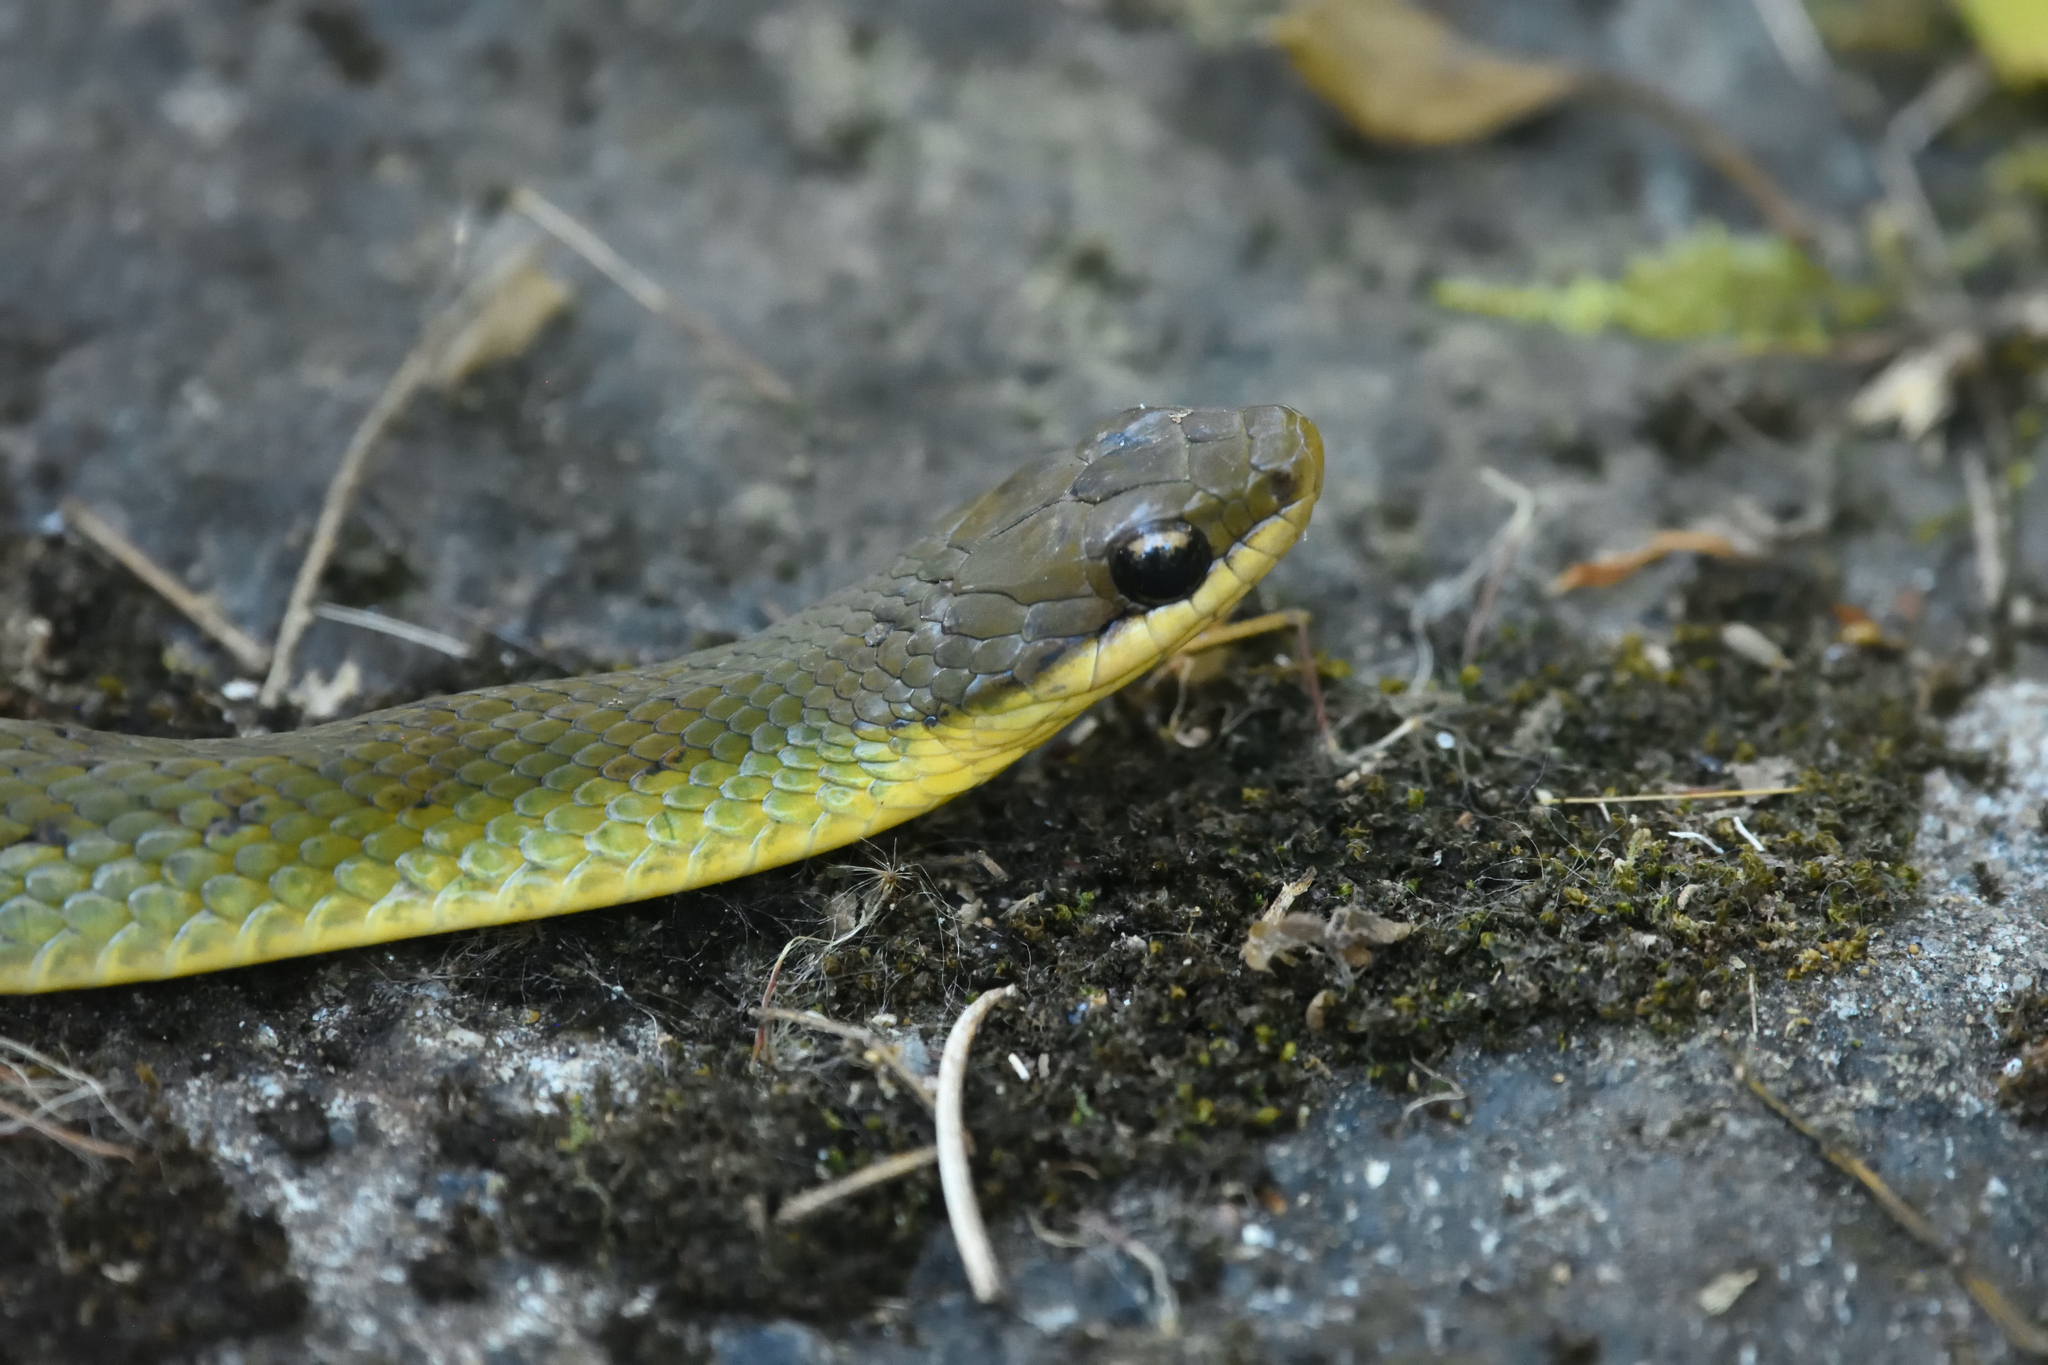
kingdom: Animalia
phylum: Chordata
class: Squamata
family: Colubridae
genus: Erythrolamprus
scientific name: Erythrolamprus epinephalus
